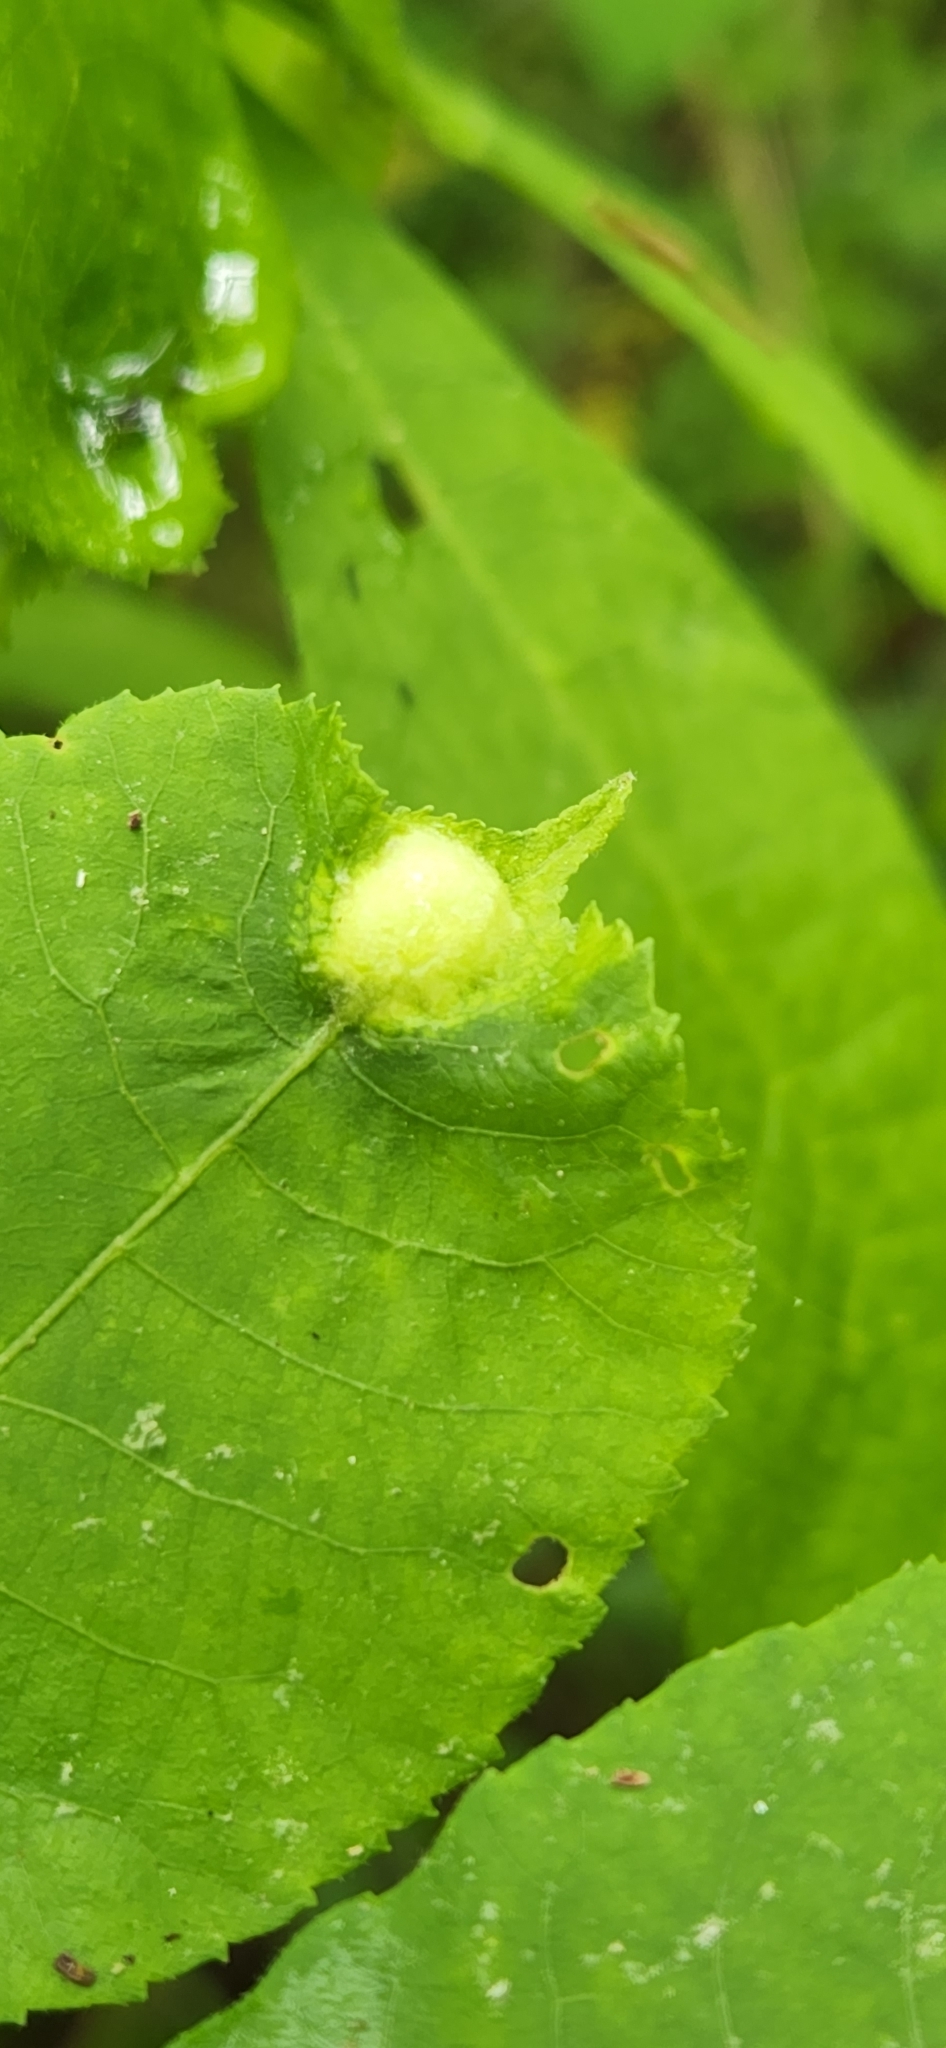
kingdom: Animalia
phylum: Arthropoda
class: Insecta
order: Hemiptera
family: Phylloxeridae
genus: Phylloxera
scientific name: Phylloxera
